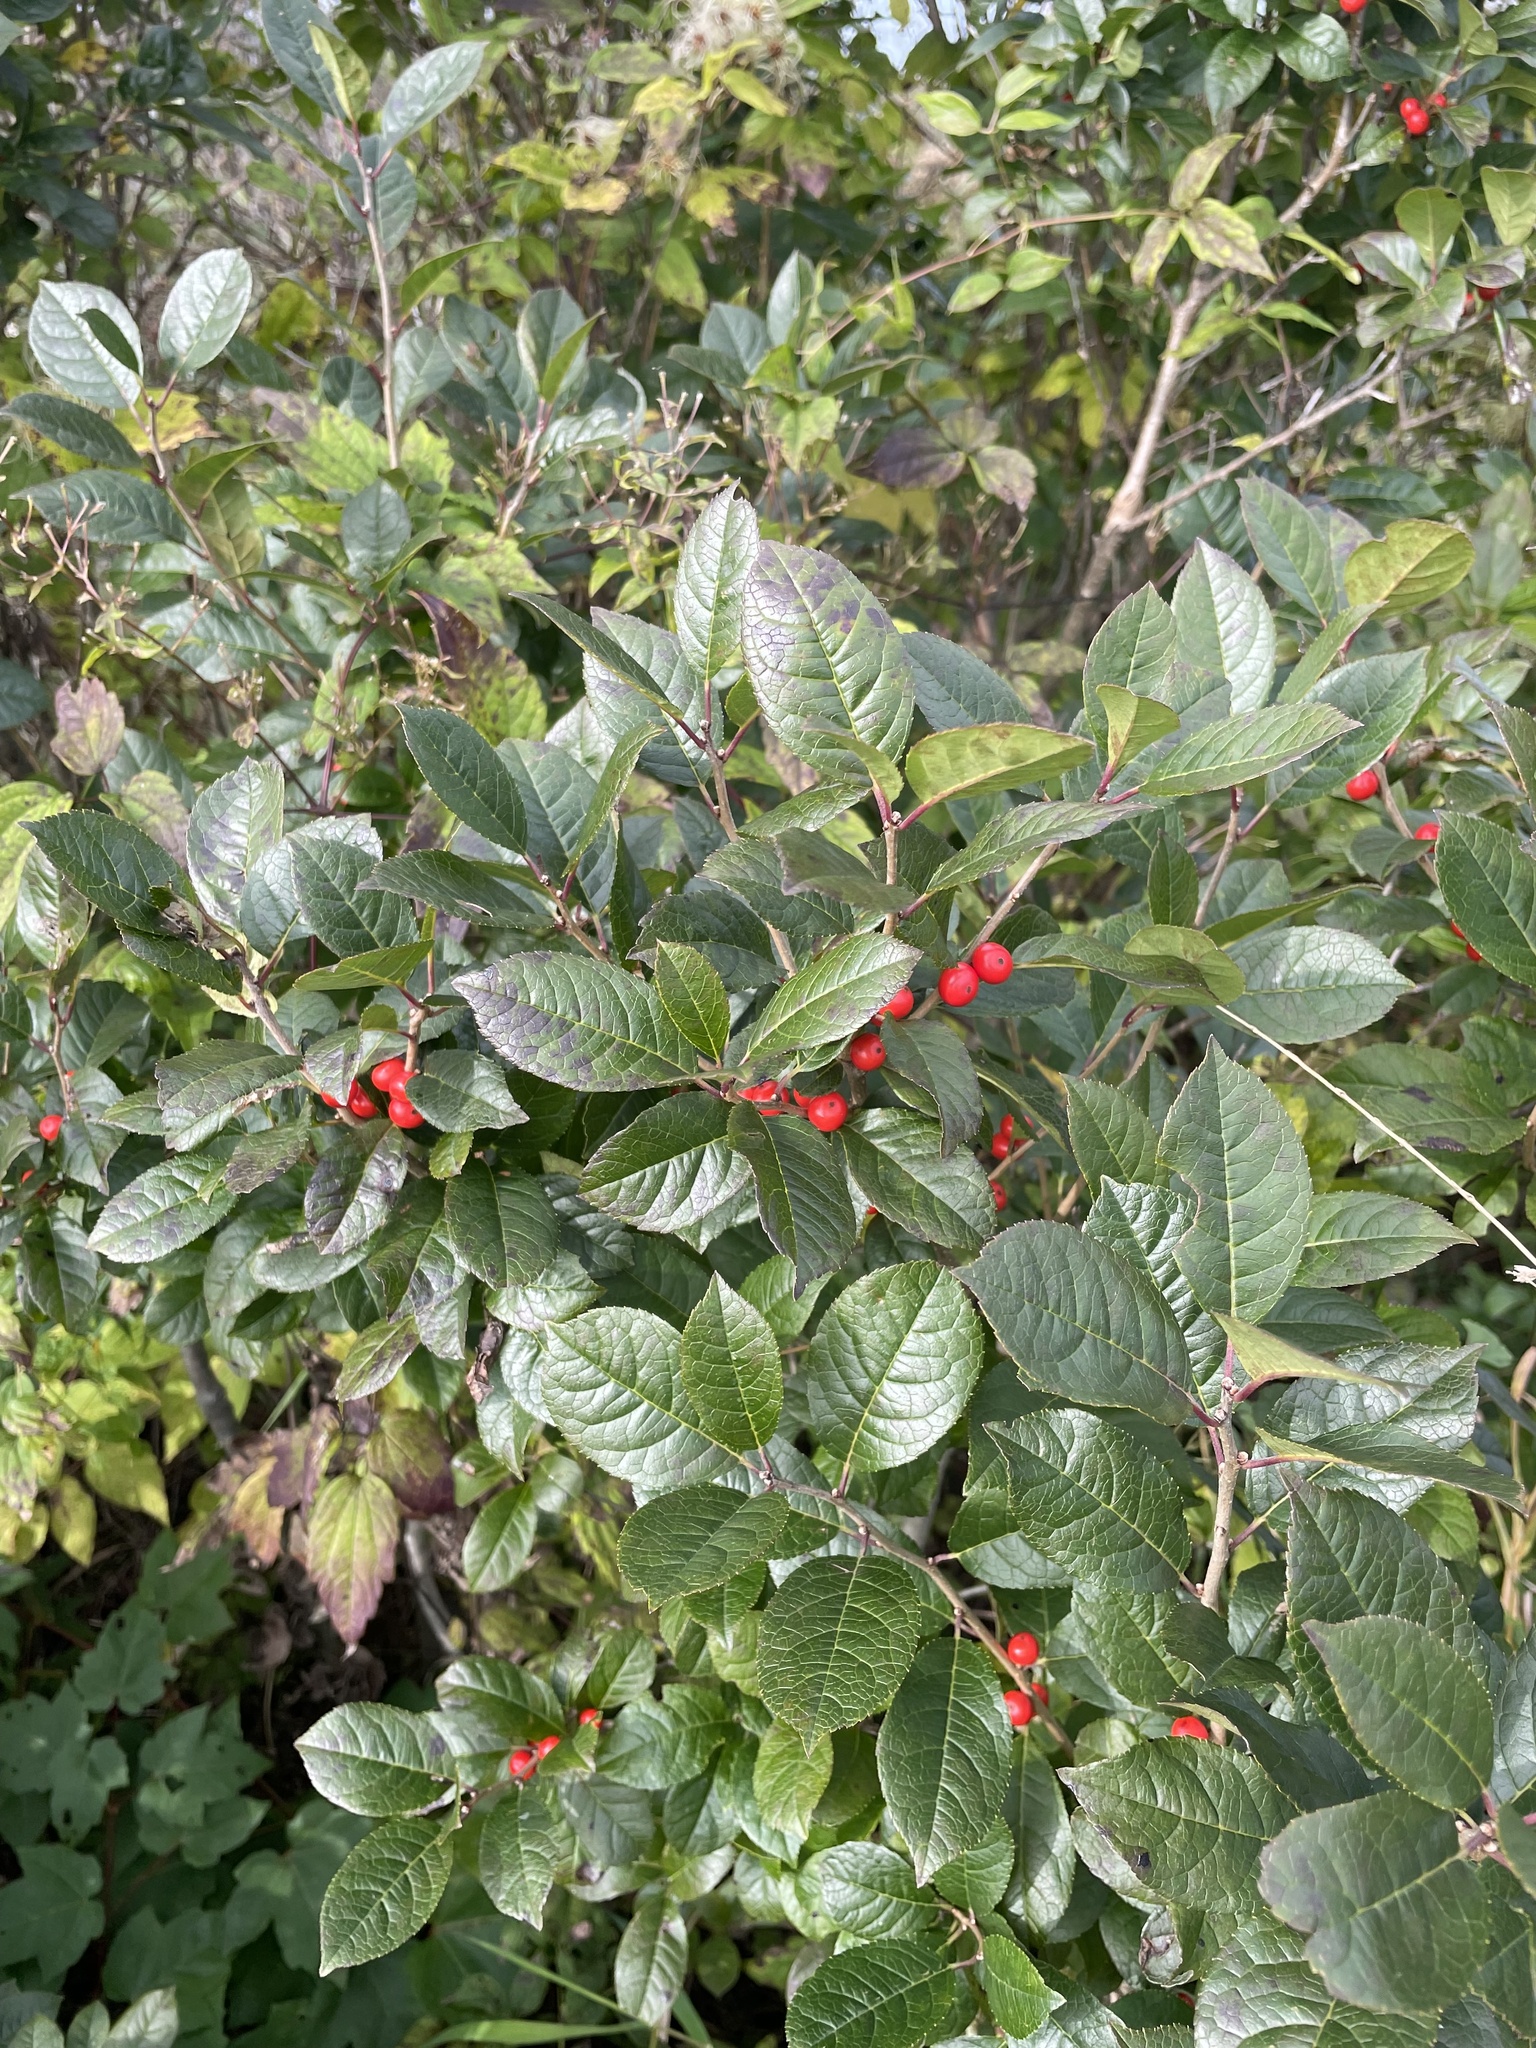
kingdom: Plantae
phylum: Tracheophyta
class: Magnoliopsida
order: Aquifoliales
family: Aquifoliaceae
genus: Ilex
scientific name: Ilex verticillata
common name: Virginia winterberry
